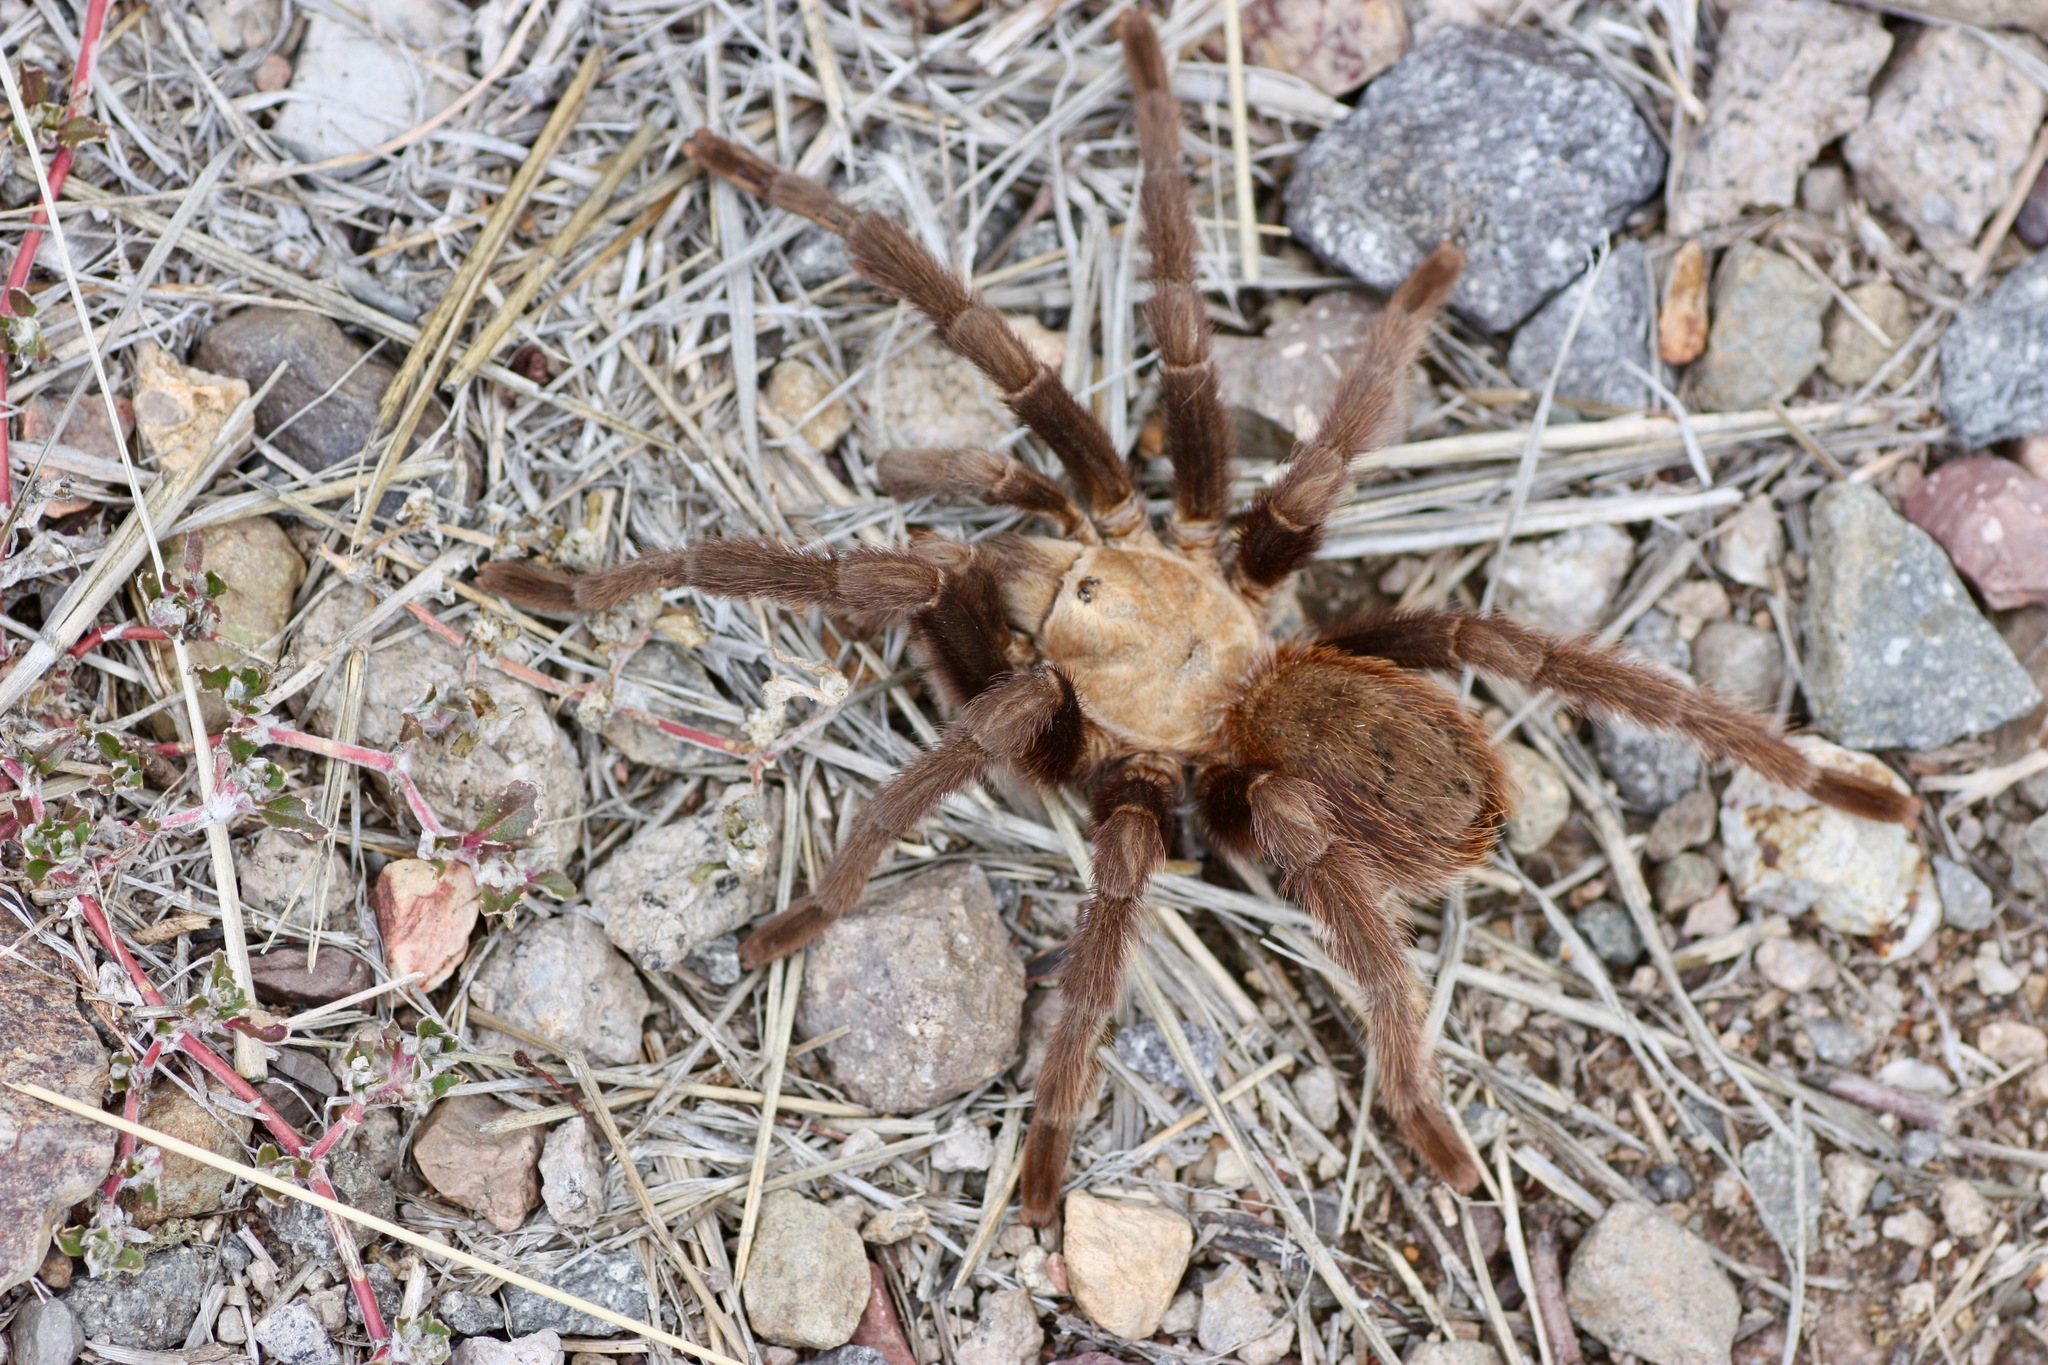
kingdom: Animalia
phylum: Arthropoda
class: Arachnida
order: Araneae
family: Theraphosidae
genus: Aphonopelma
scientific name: Aphonopelma hentzi
